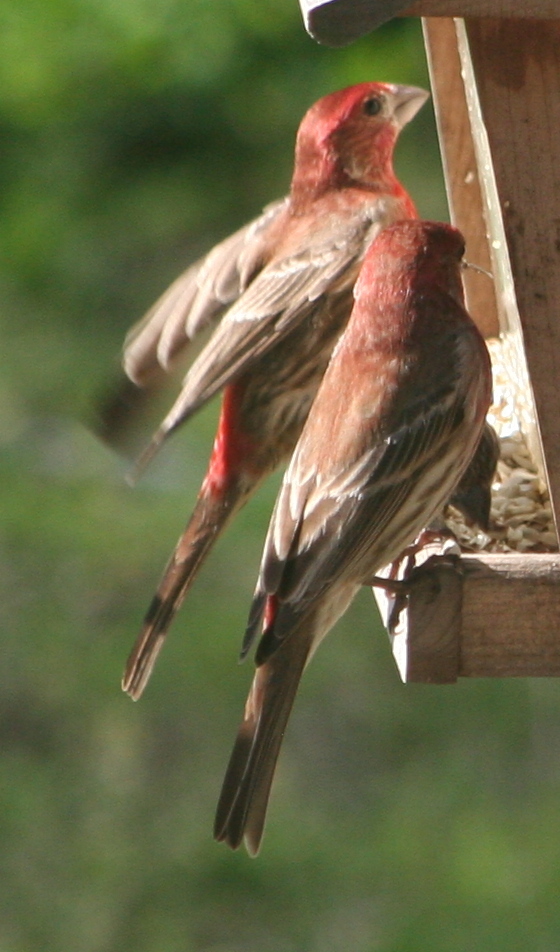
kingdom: Animalia
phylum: Chordata
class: Aves
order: Passeriformes
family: Fringillidae
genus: Haemorhous
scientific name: Haemorhous mexicanus
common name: House finch
